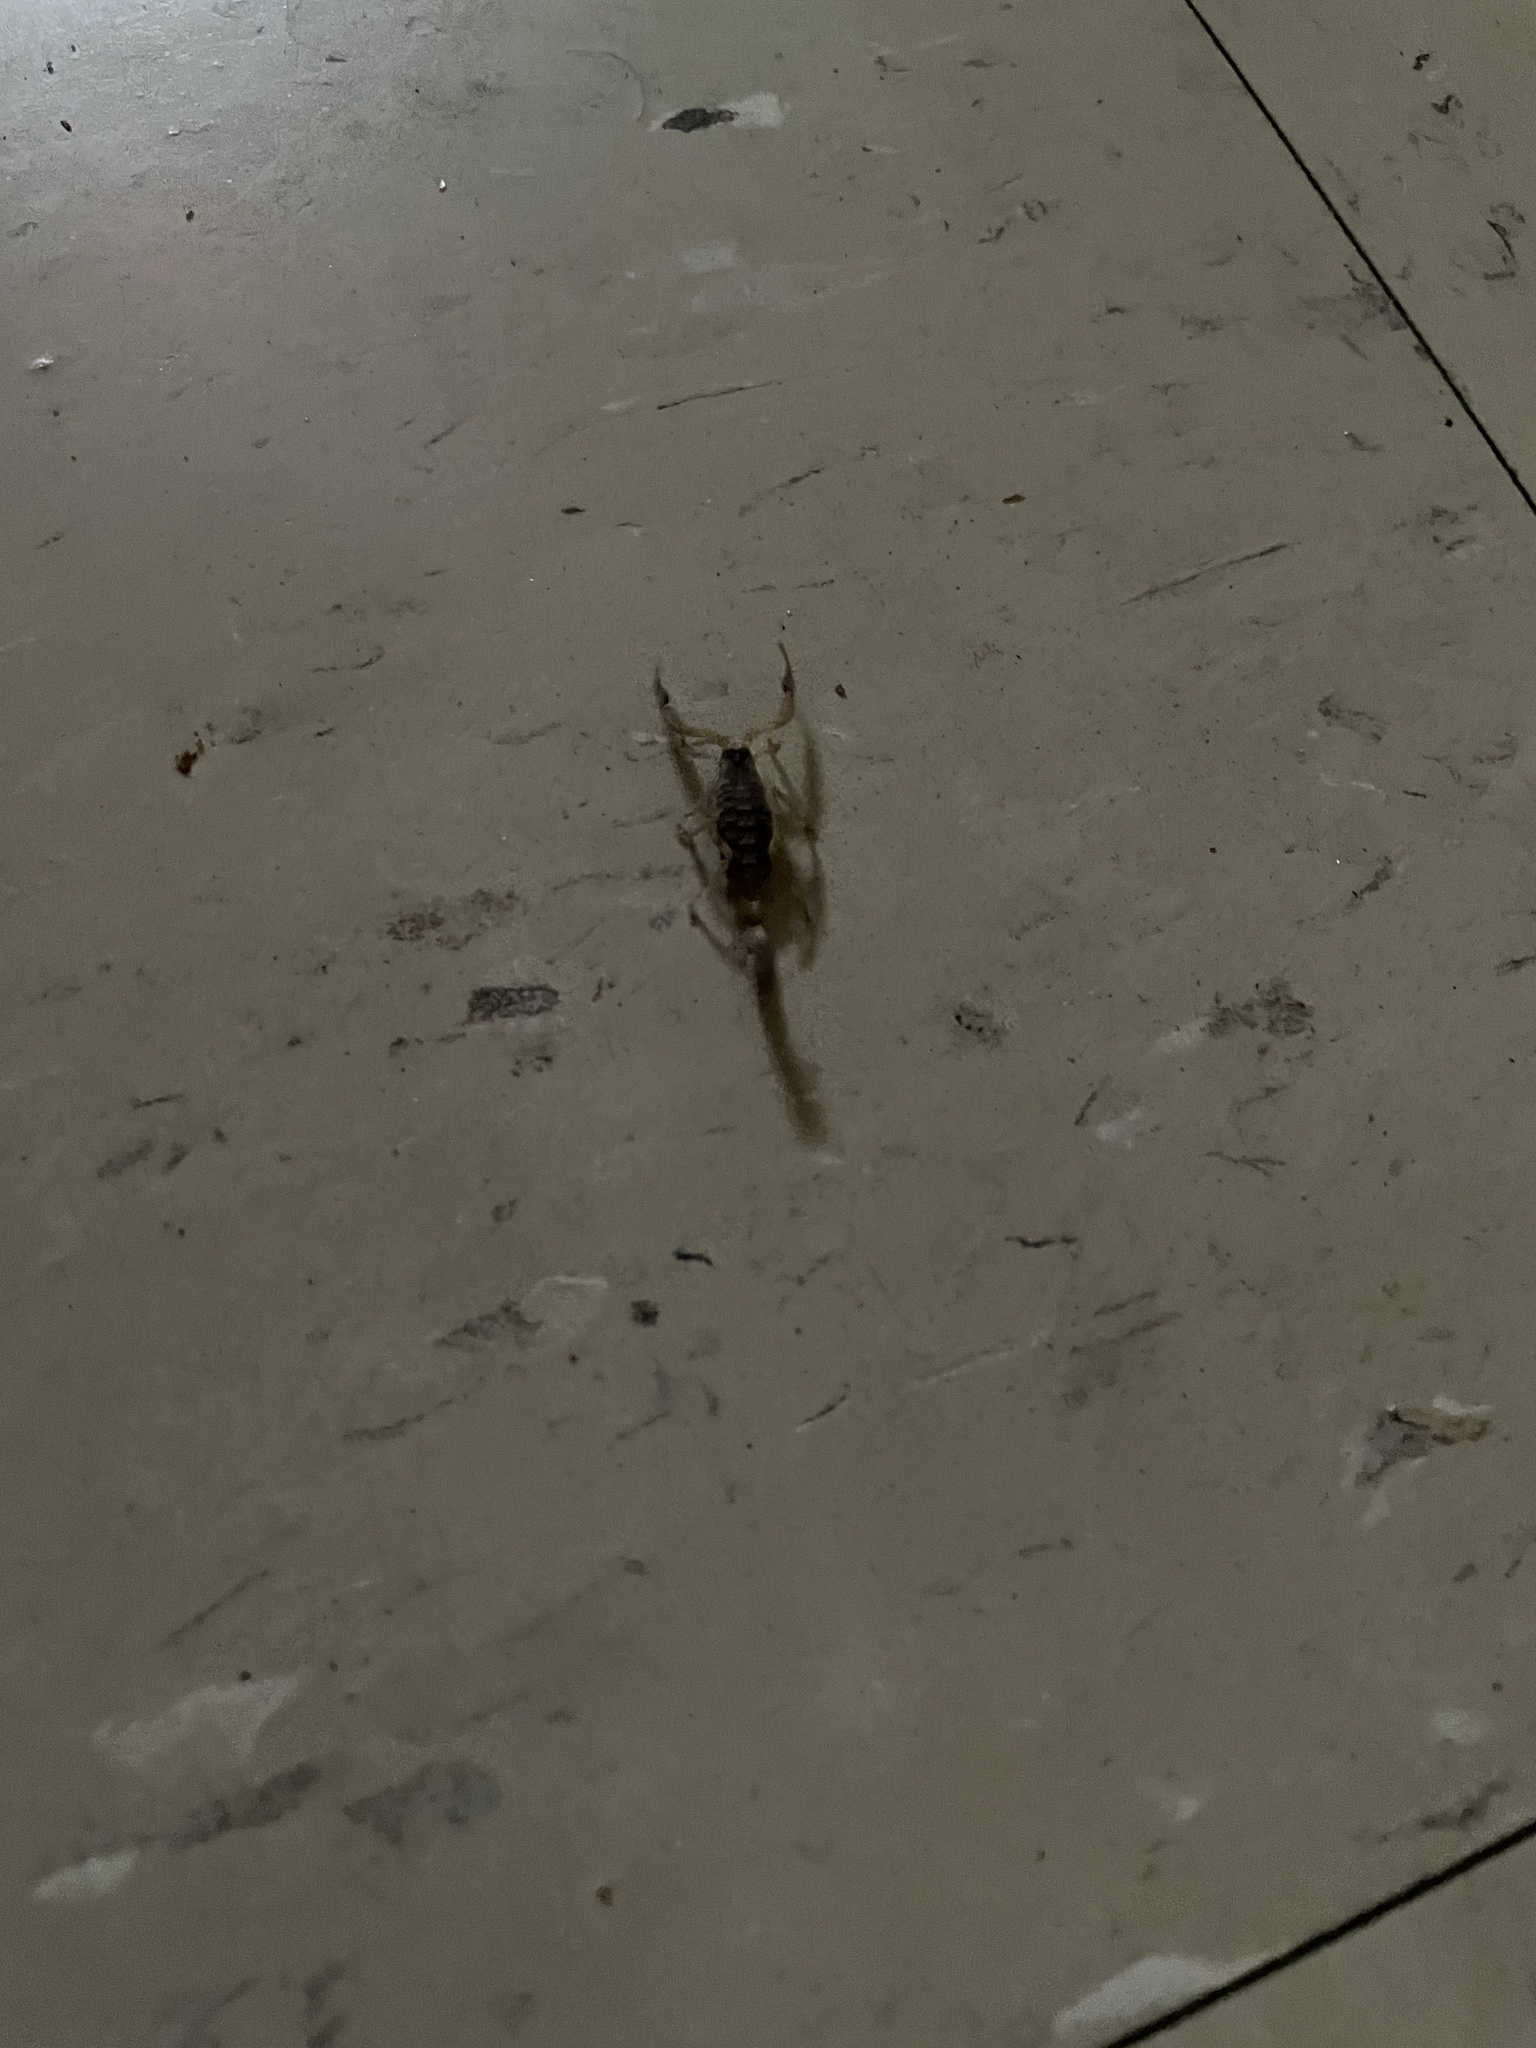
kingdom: Animalia
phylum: Arthropoda
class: Arachnida
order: Scorpiones
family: Buthidae
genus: Centruroides
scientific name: Centruroides vittatus
